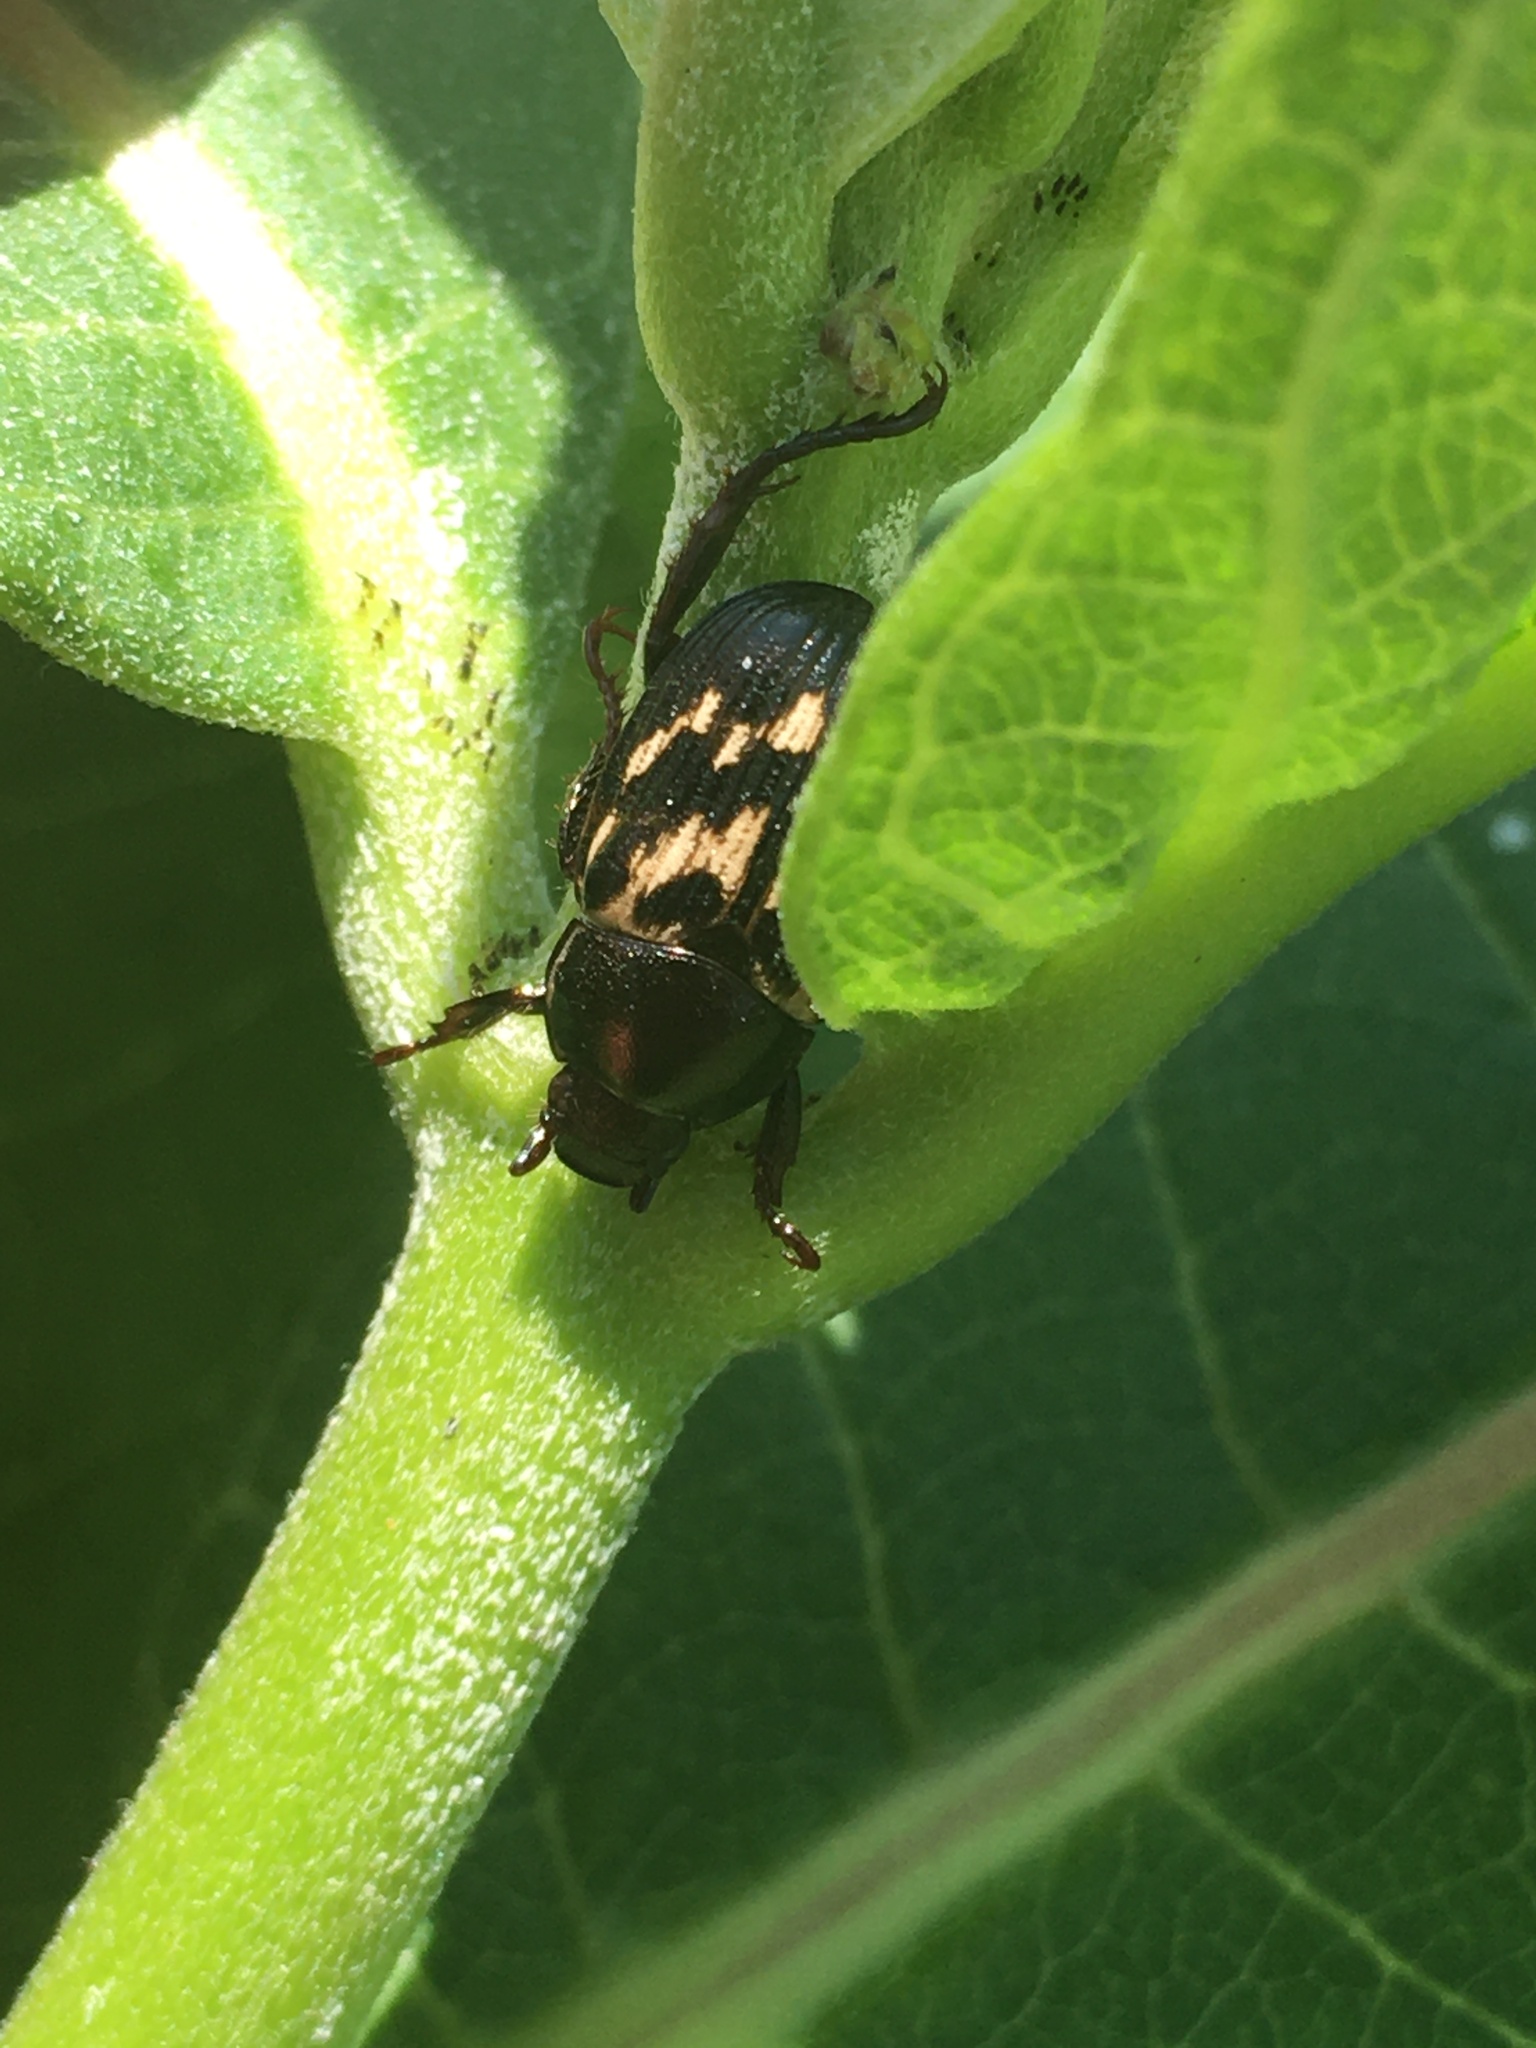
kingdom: Animalia
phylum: Arthropoda
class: Insecta
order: Coleoptera
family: Scarabaeidae
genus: Exomala
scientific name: Exomala orientalis
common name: Oriental beetle
